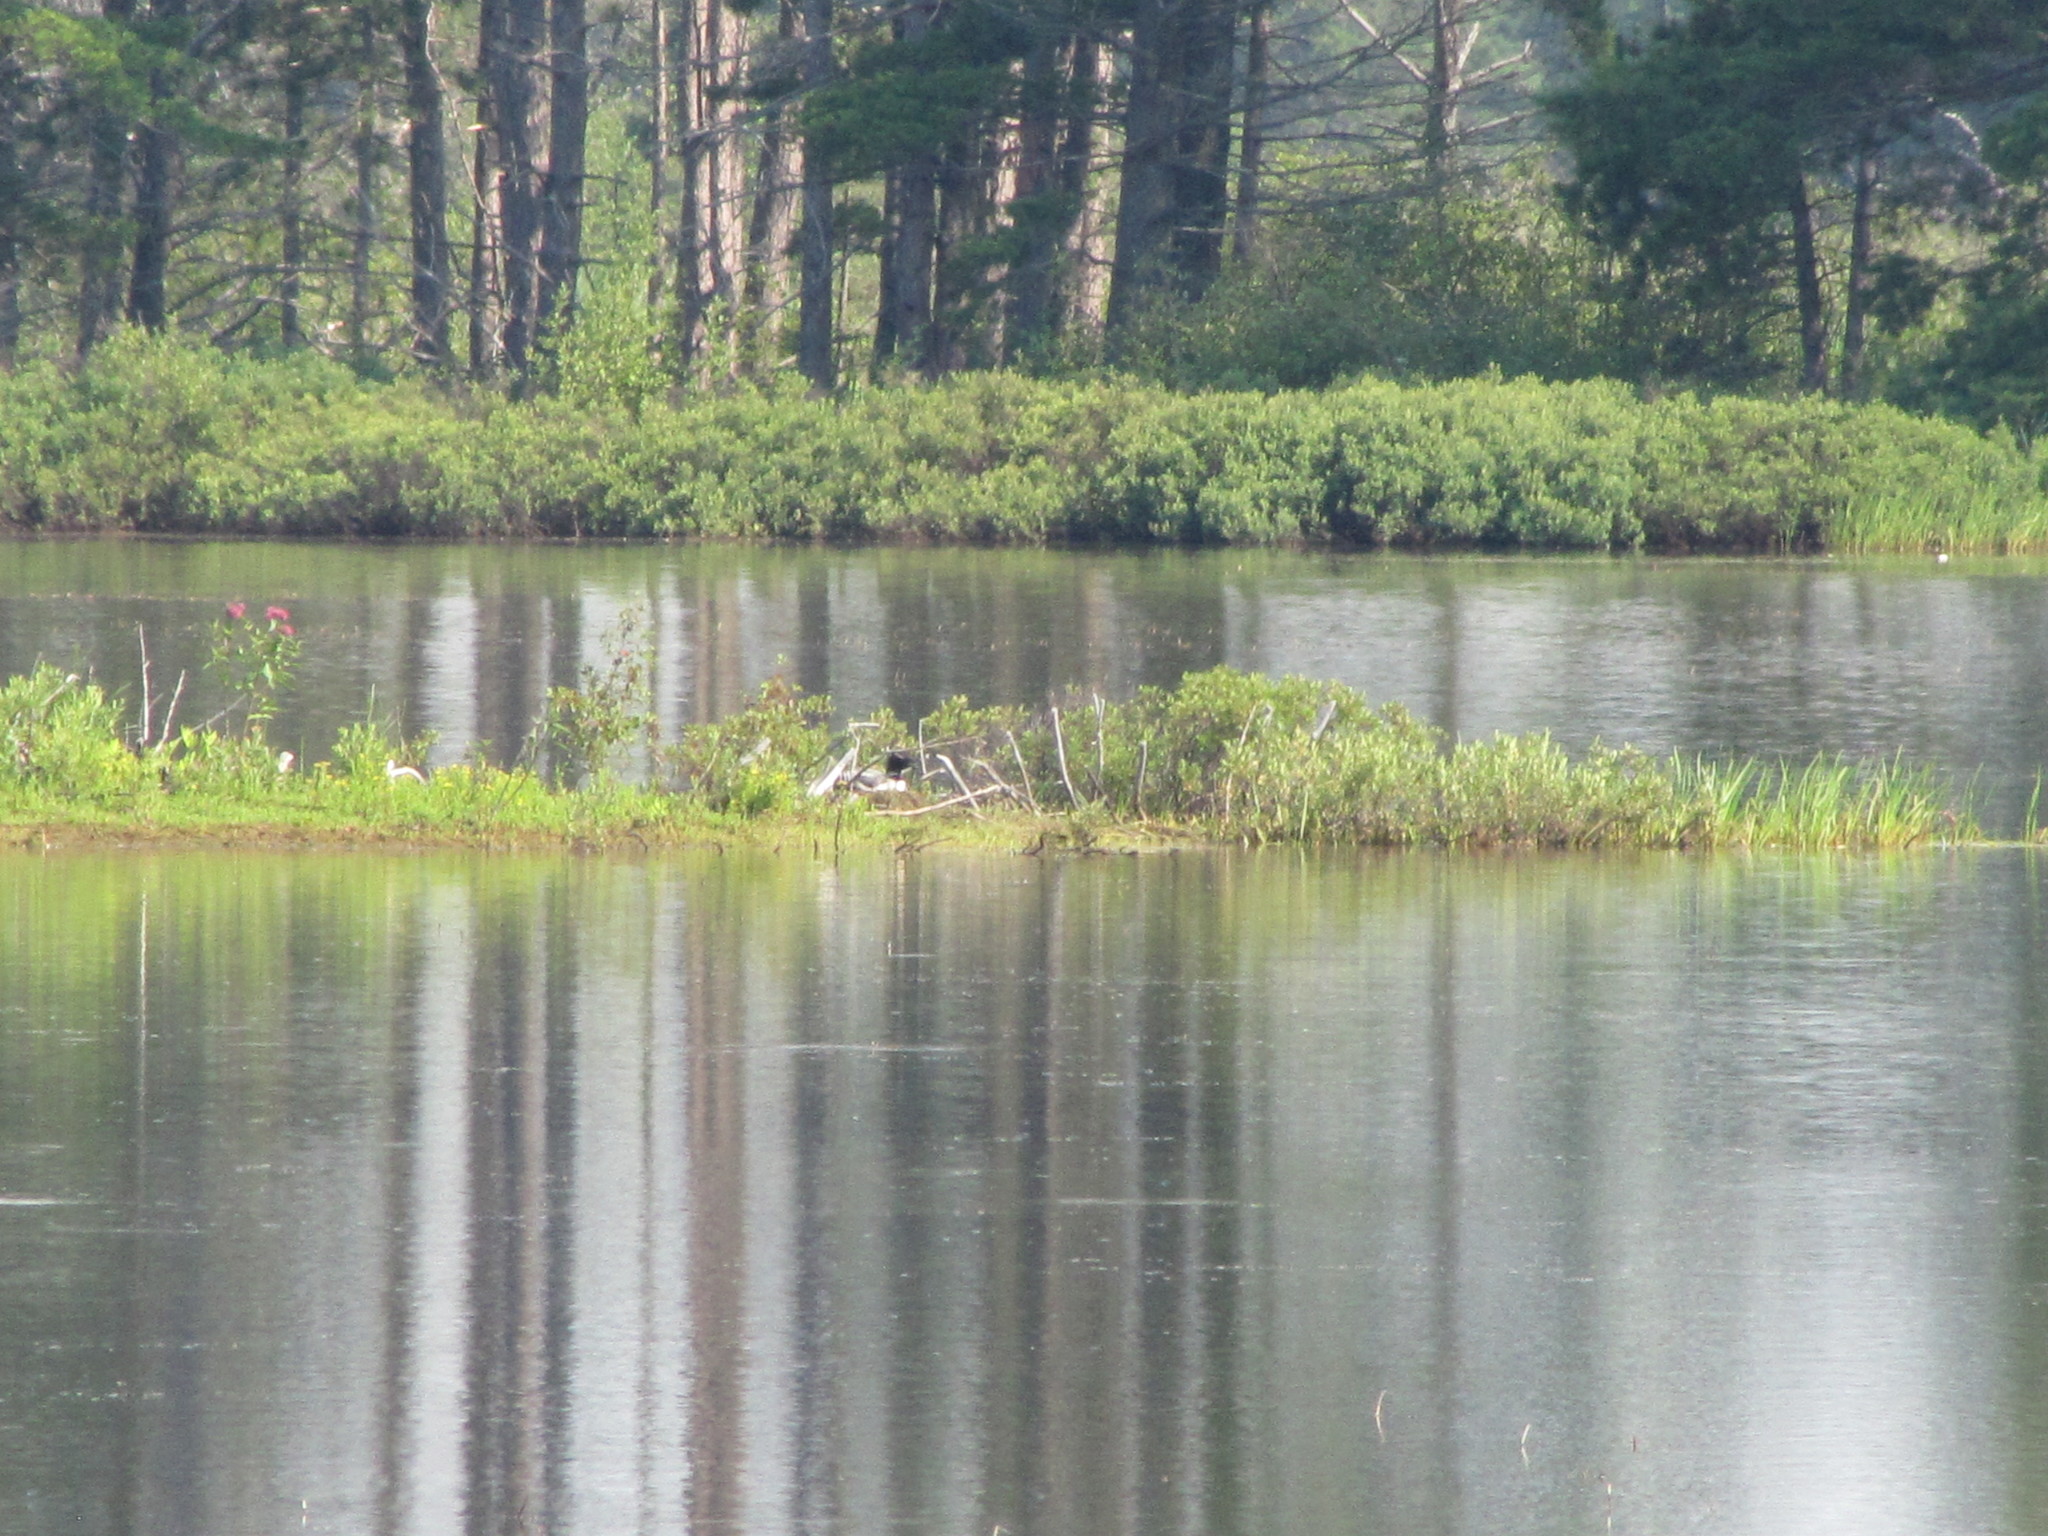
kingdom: Animalia
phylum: Chordata
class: Aves
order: Gaviiformes
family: Gaviidae
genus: Gavia
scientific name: Gavia immer
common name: Common loon
